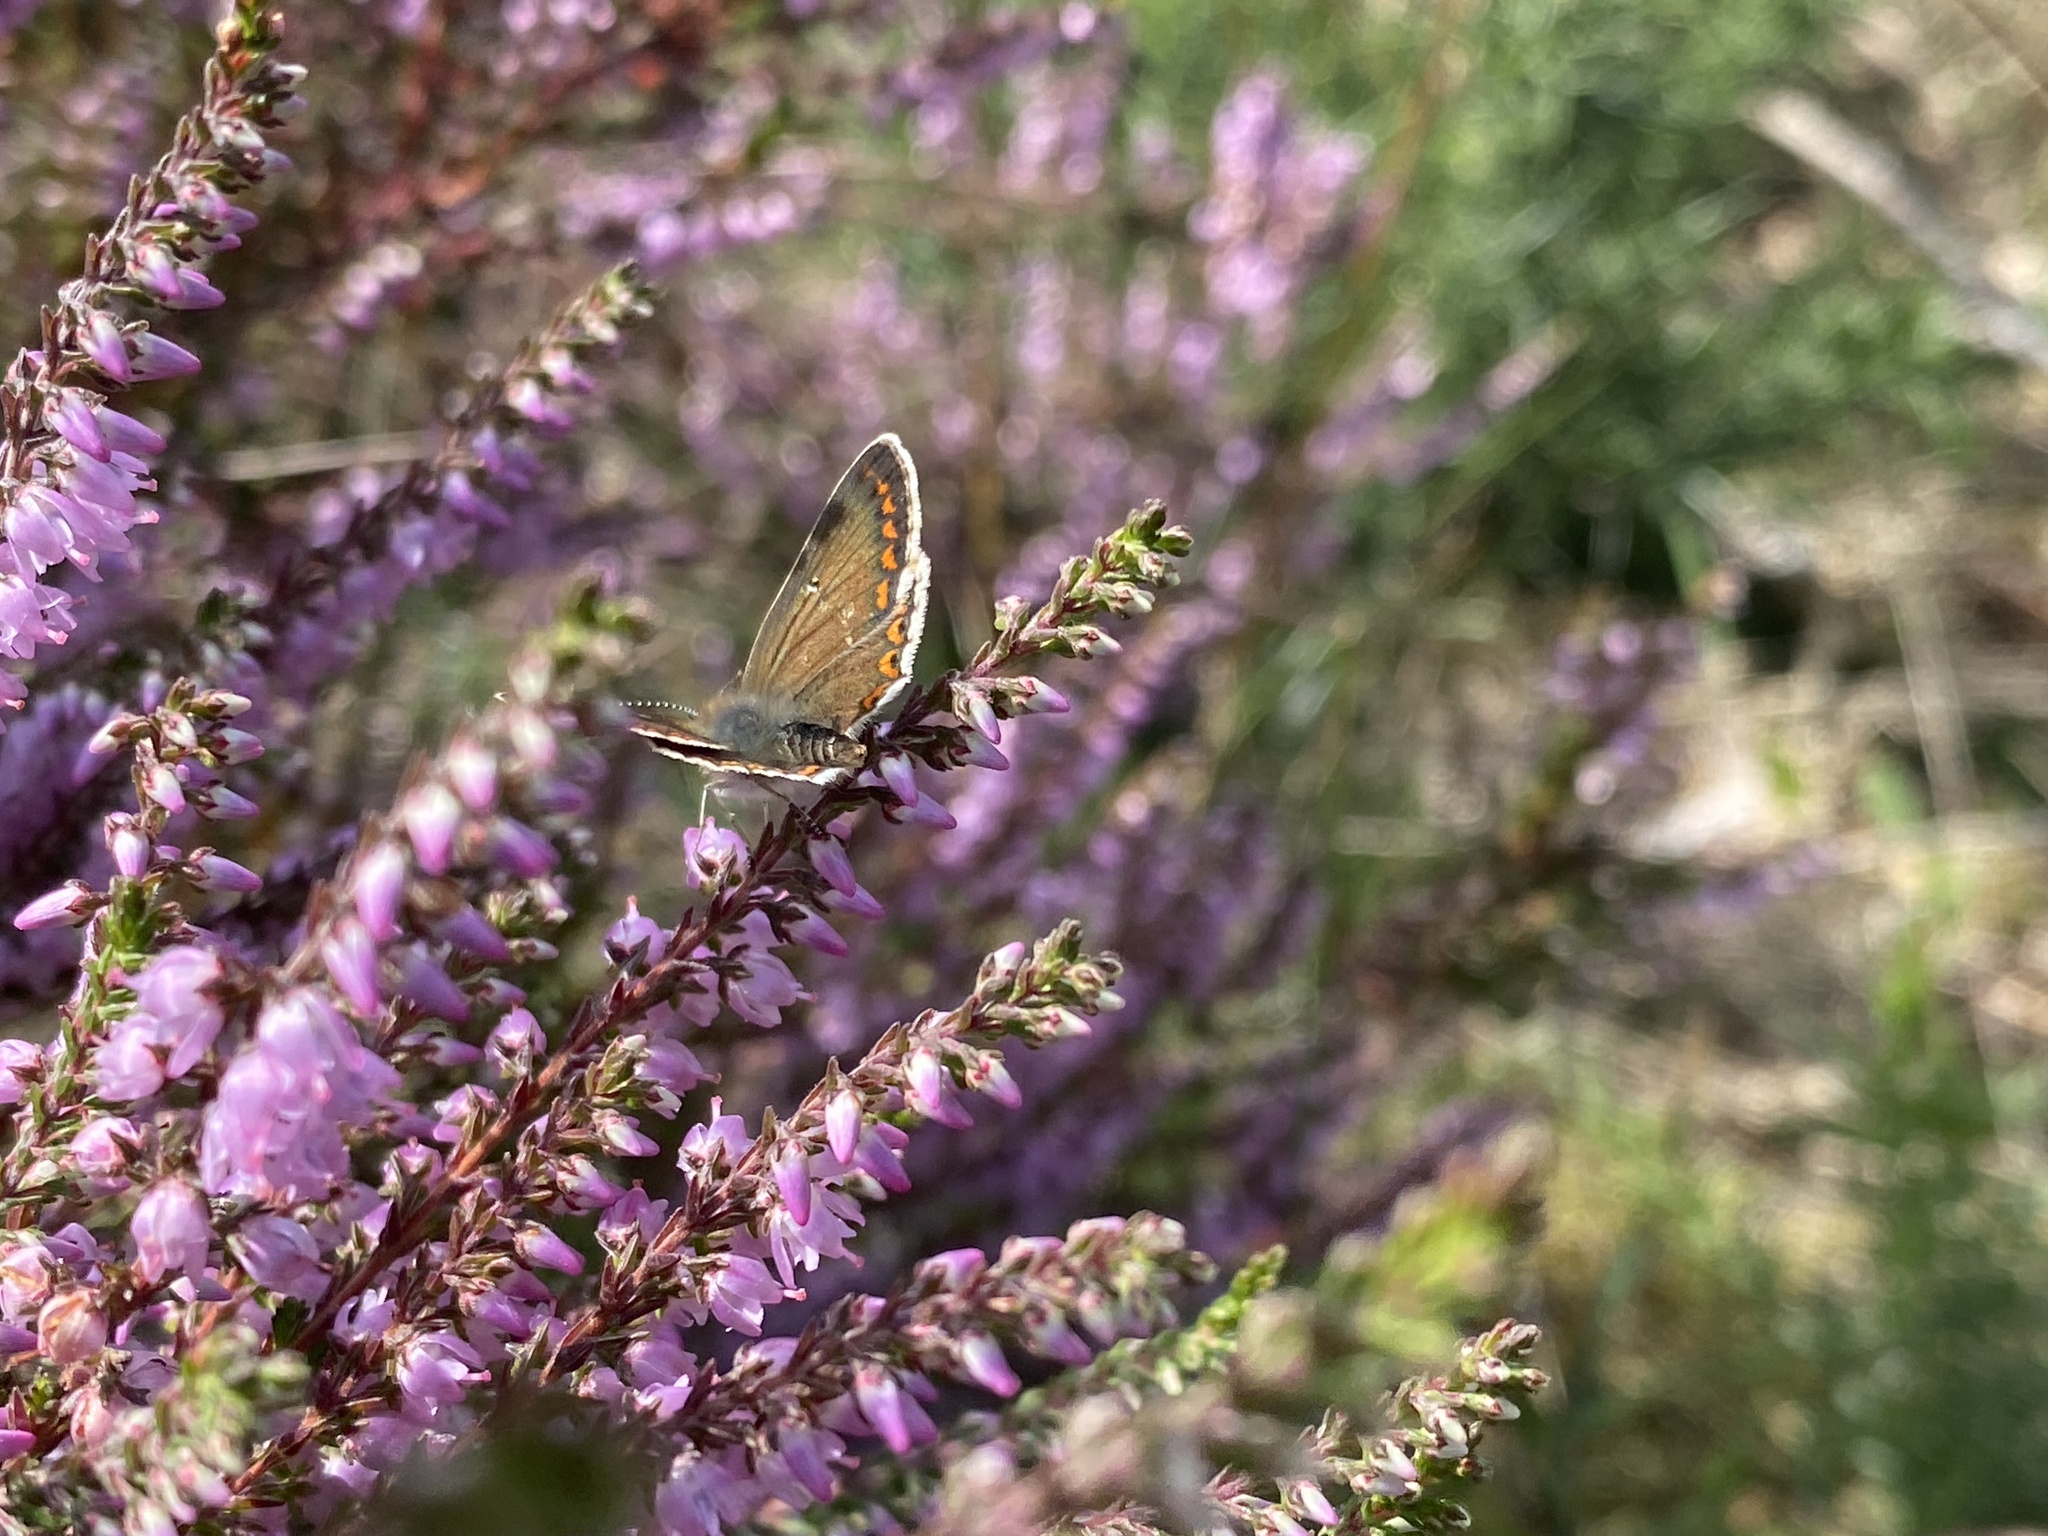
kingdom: Animalia
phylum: Arthropoda
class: Insecta
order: Lepidoptera
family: Lycaenidae
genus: Aricia
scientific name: Aricia agestis
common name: Brown argus
